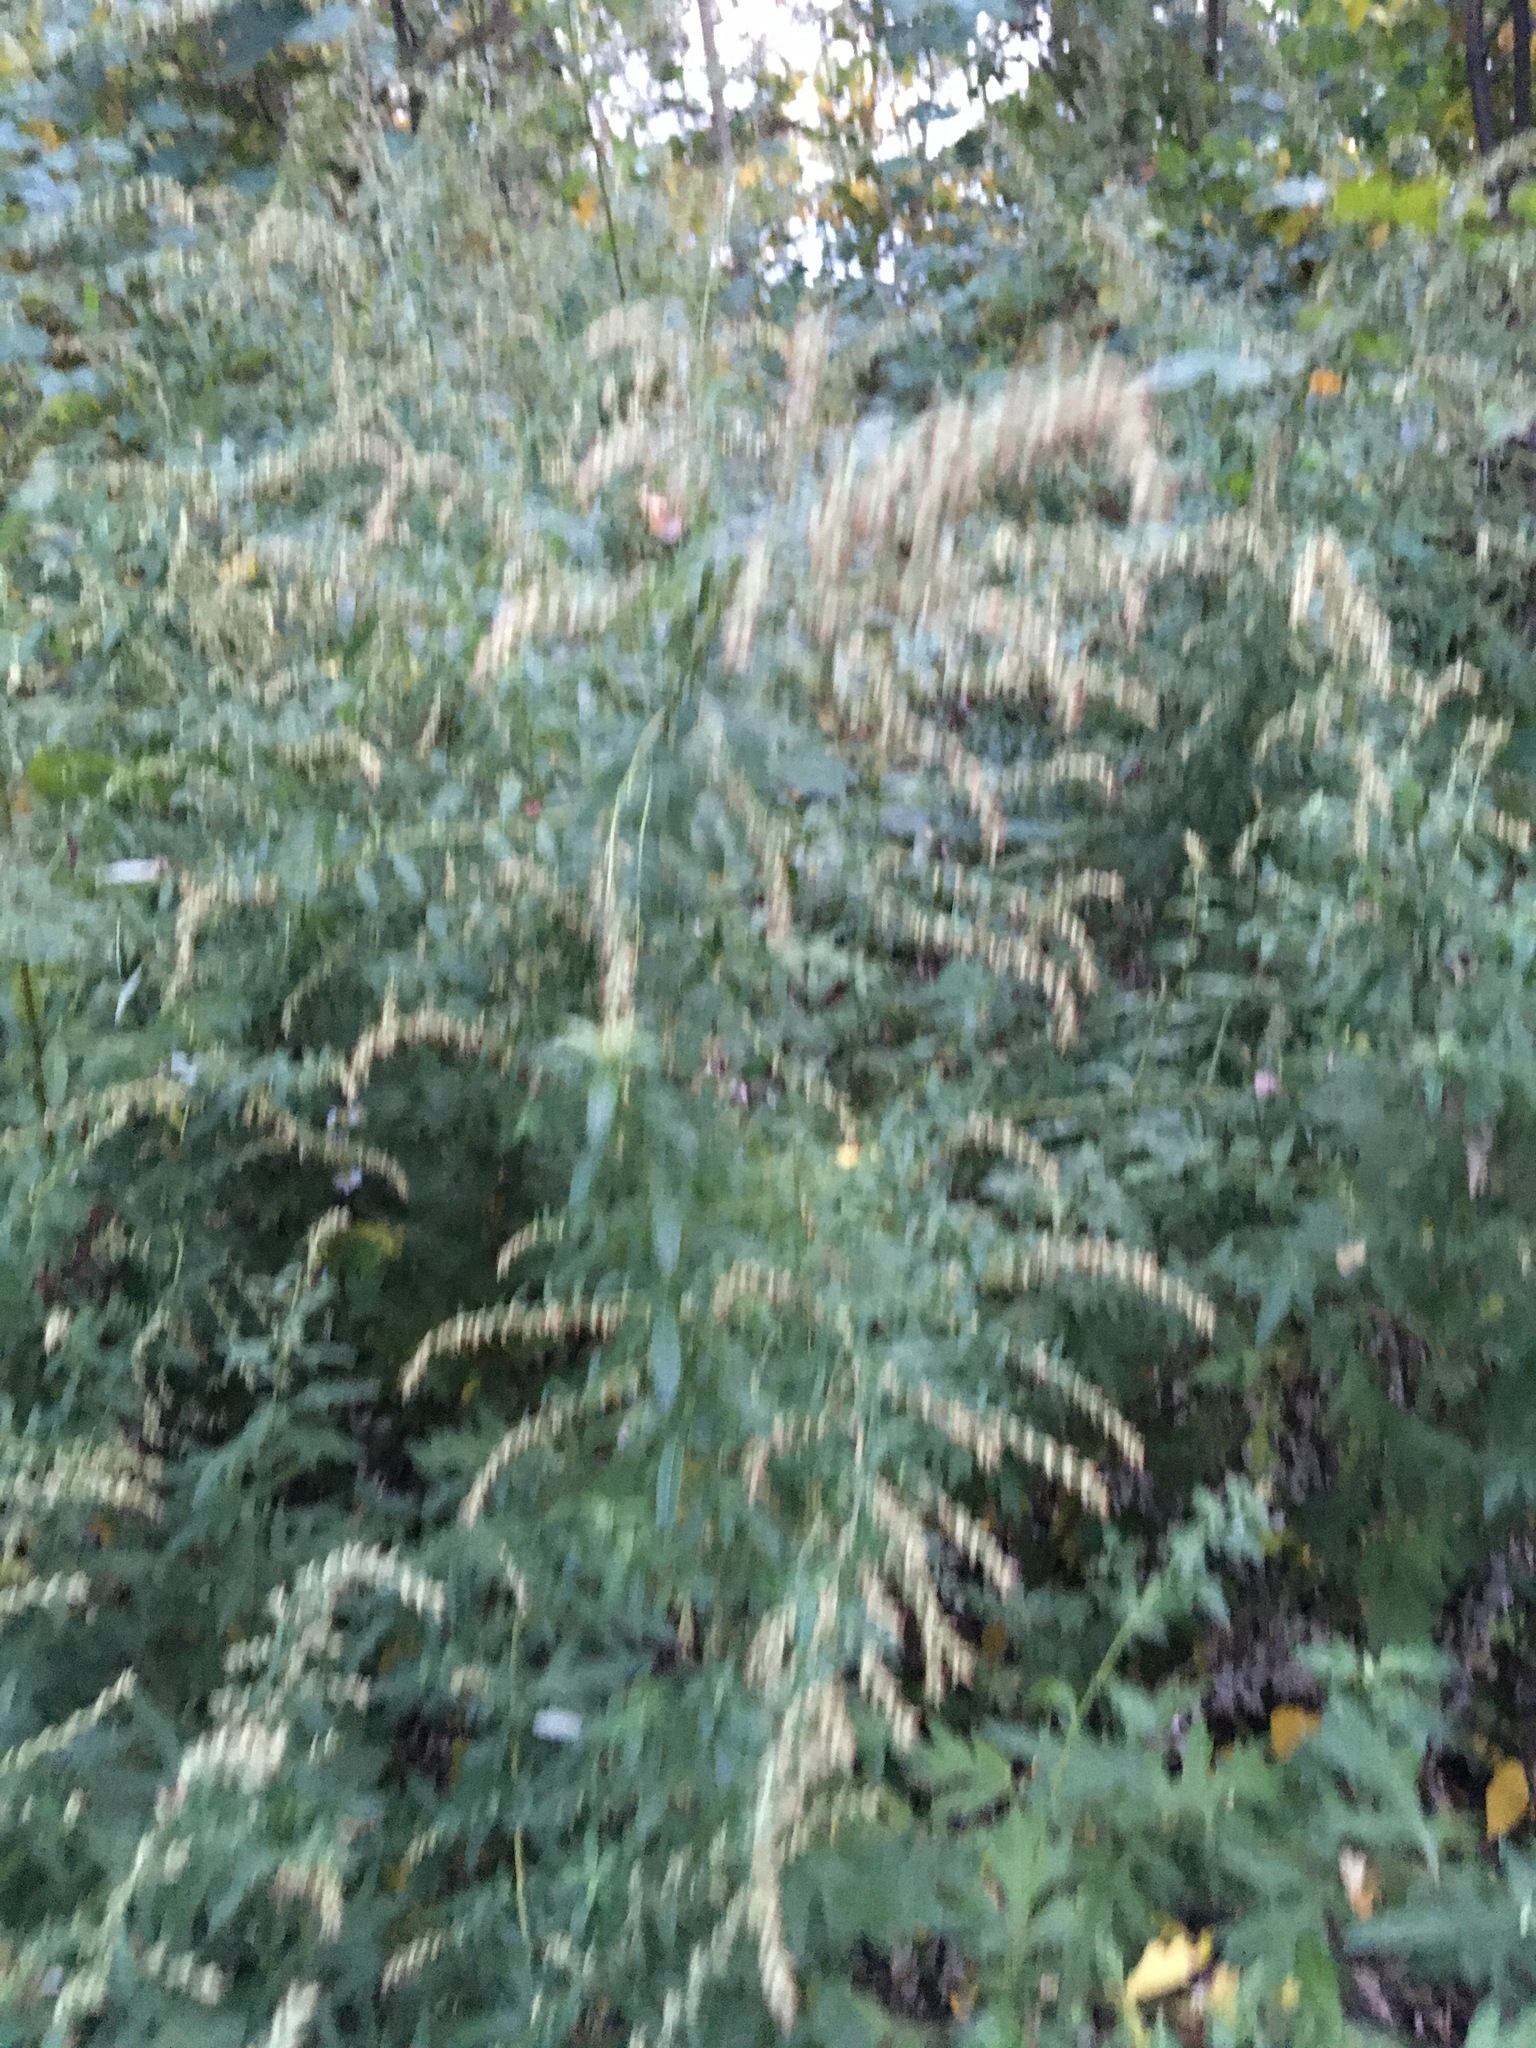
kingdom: Plantae
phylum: Tracheophyta
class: Magnoliopsida
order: Asterales
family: Asteraceae
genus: Artemisia
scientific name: Artemisia vulgaris
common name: Mugwort
